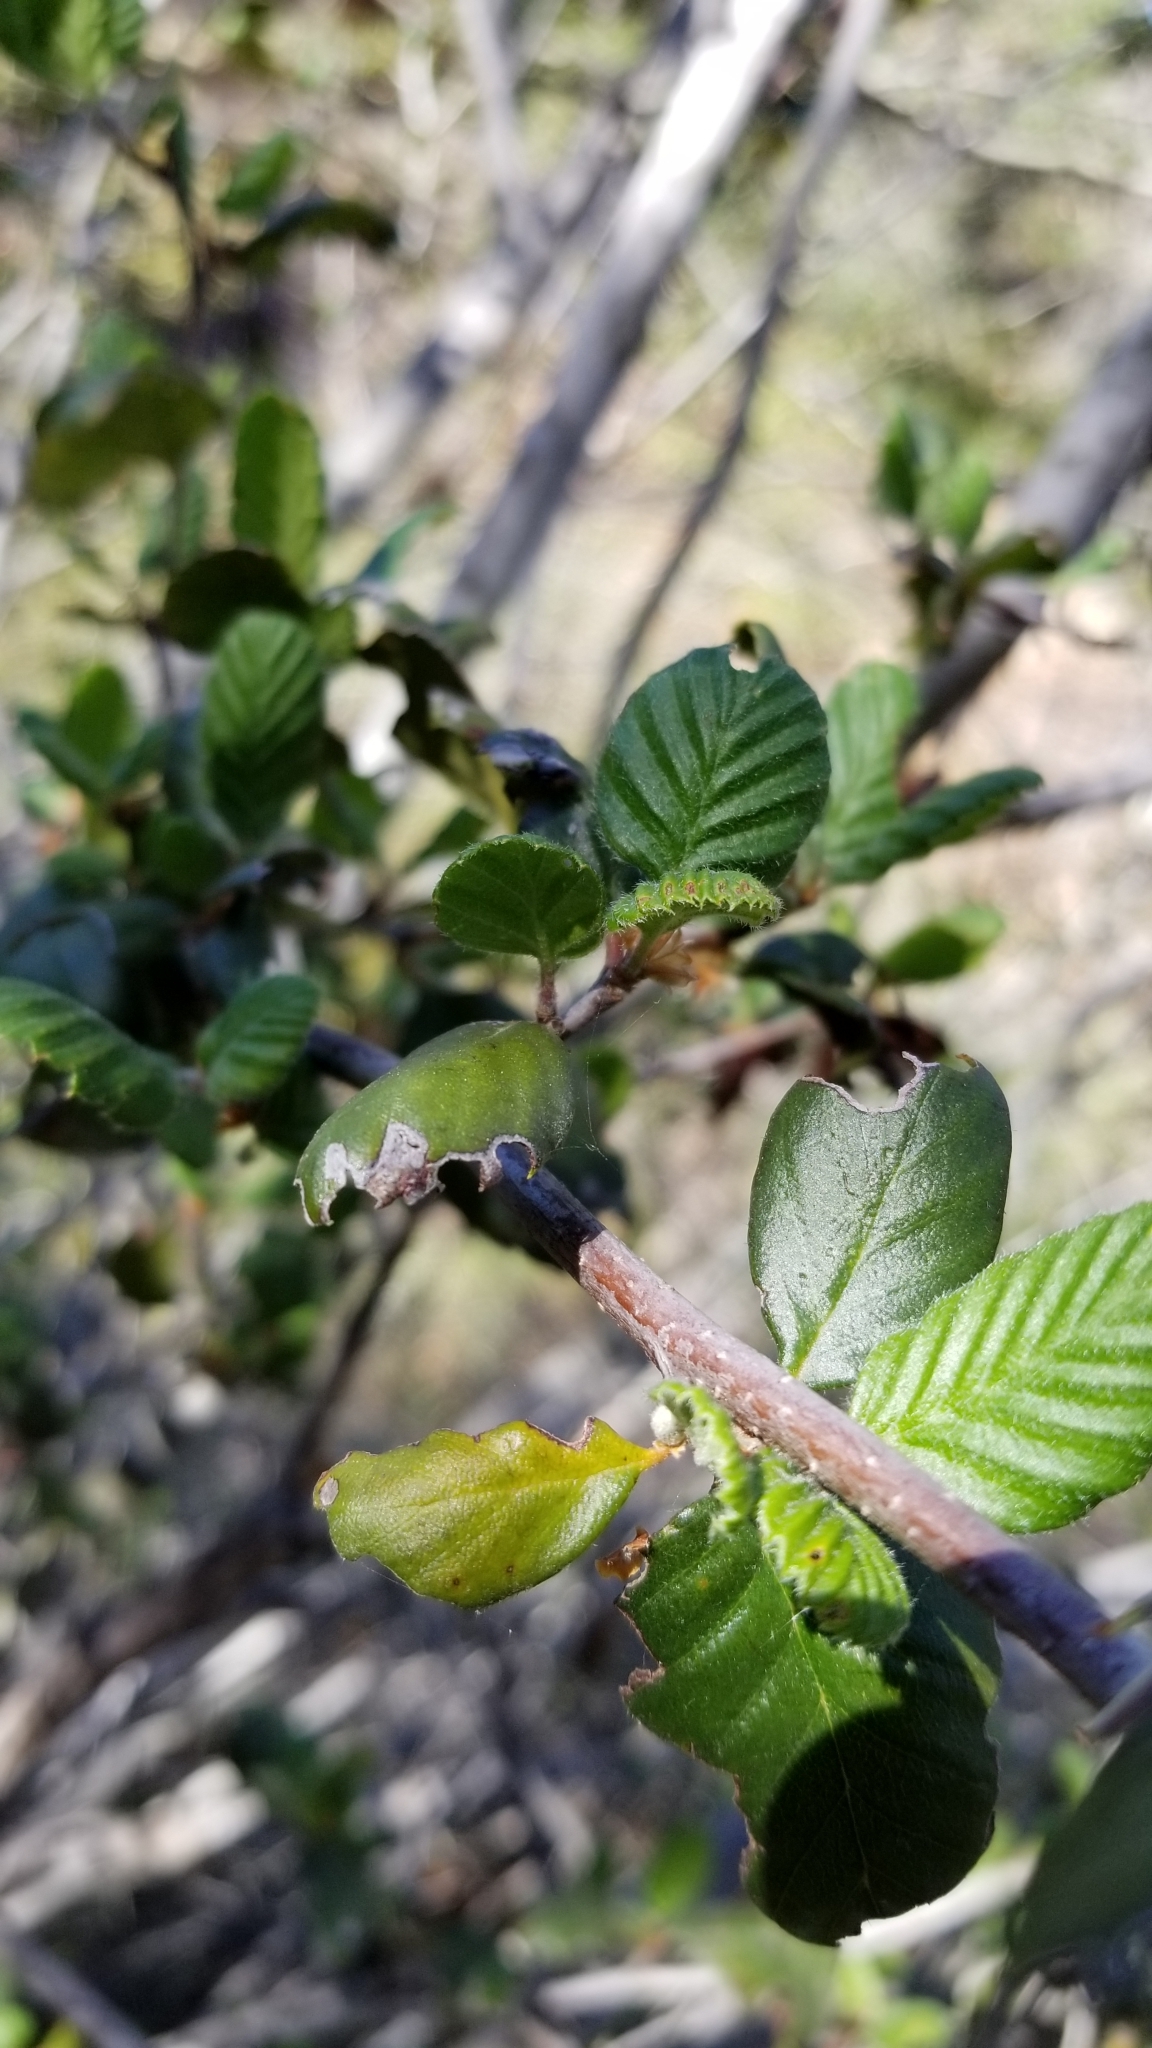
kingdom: Plantae
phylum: Tracheophyta
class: Magnoliopsida
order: Rosales
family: Rosaceae
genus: Cercocarpus
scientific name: Cercocarpus betuloides
